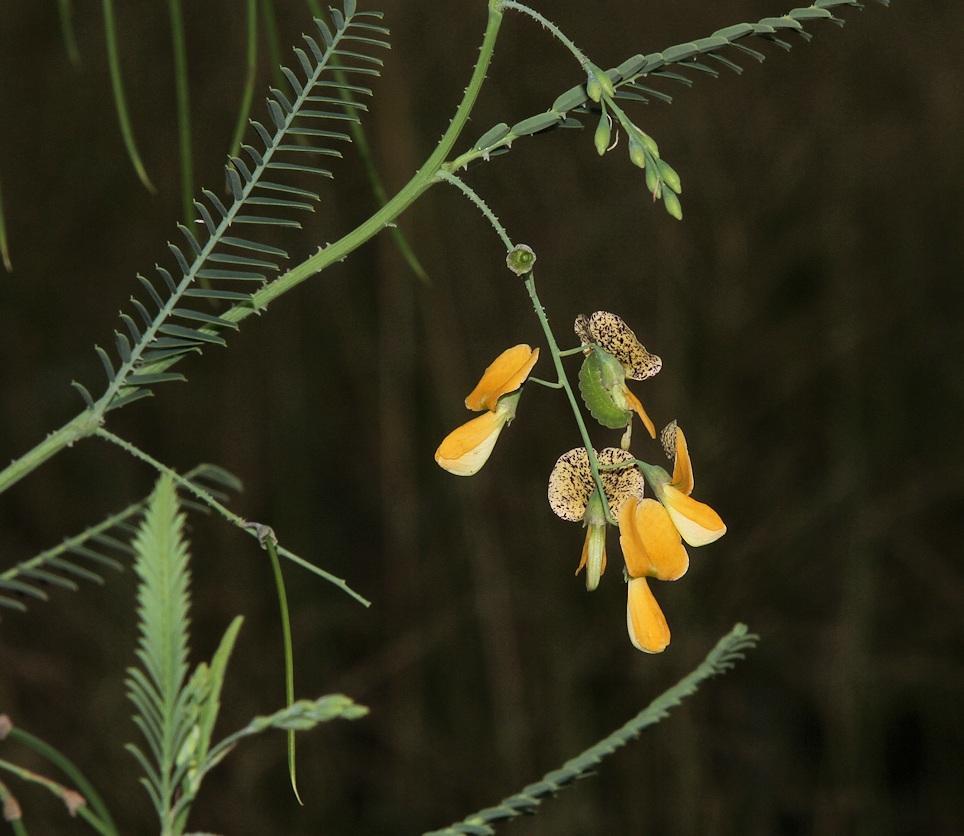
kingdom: Plantae
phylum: Tracheophyta
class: Magnoliopsida
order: Fabales
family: Fabaceae
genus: Sesbania
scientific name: Sesbania bispinosa
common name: Sesbania pea
